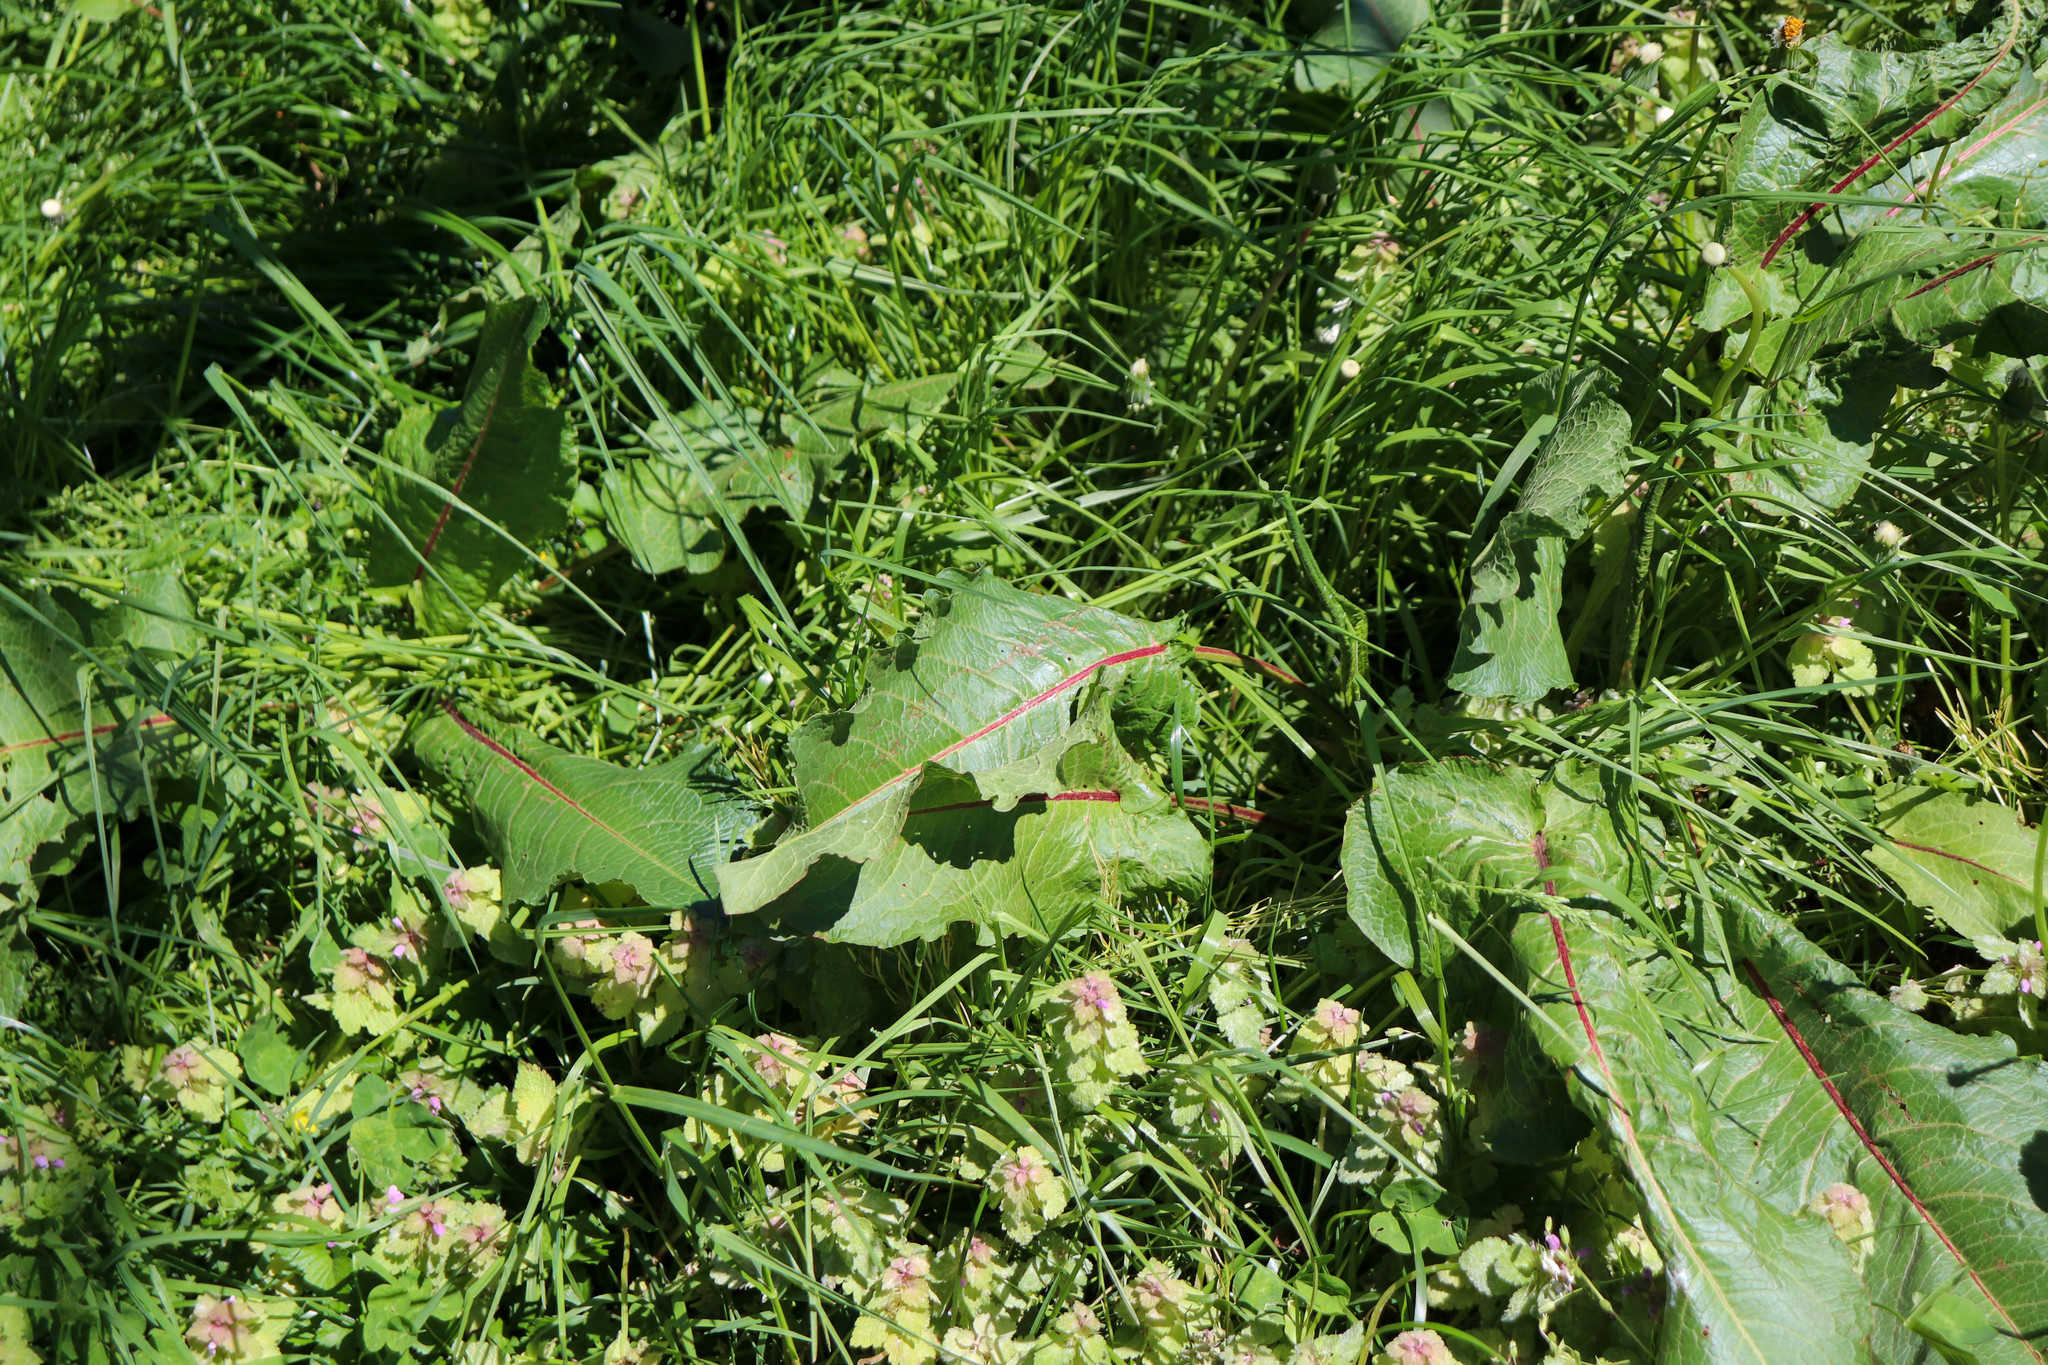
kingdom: Plantae
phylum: Tracheophyta
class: Magnoliopsida
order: Caryophyllales
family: Polygonaceae
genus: Rumex
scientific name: Rumex obtusifolius
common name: Bitter dock
